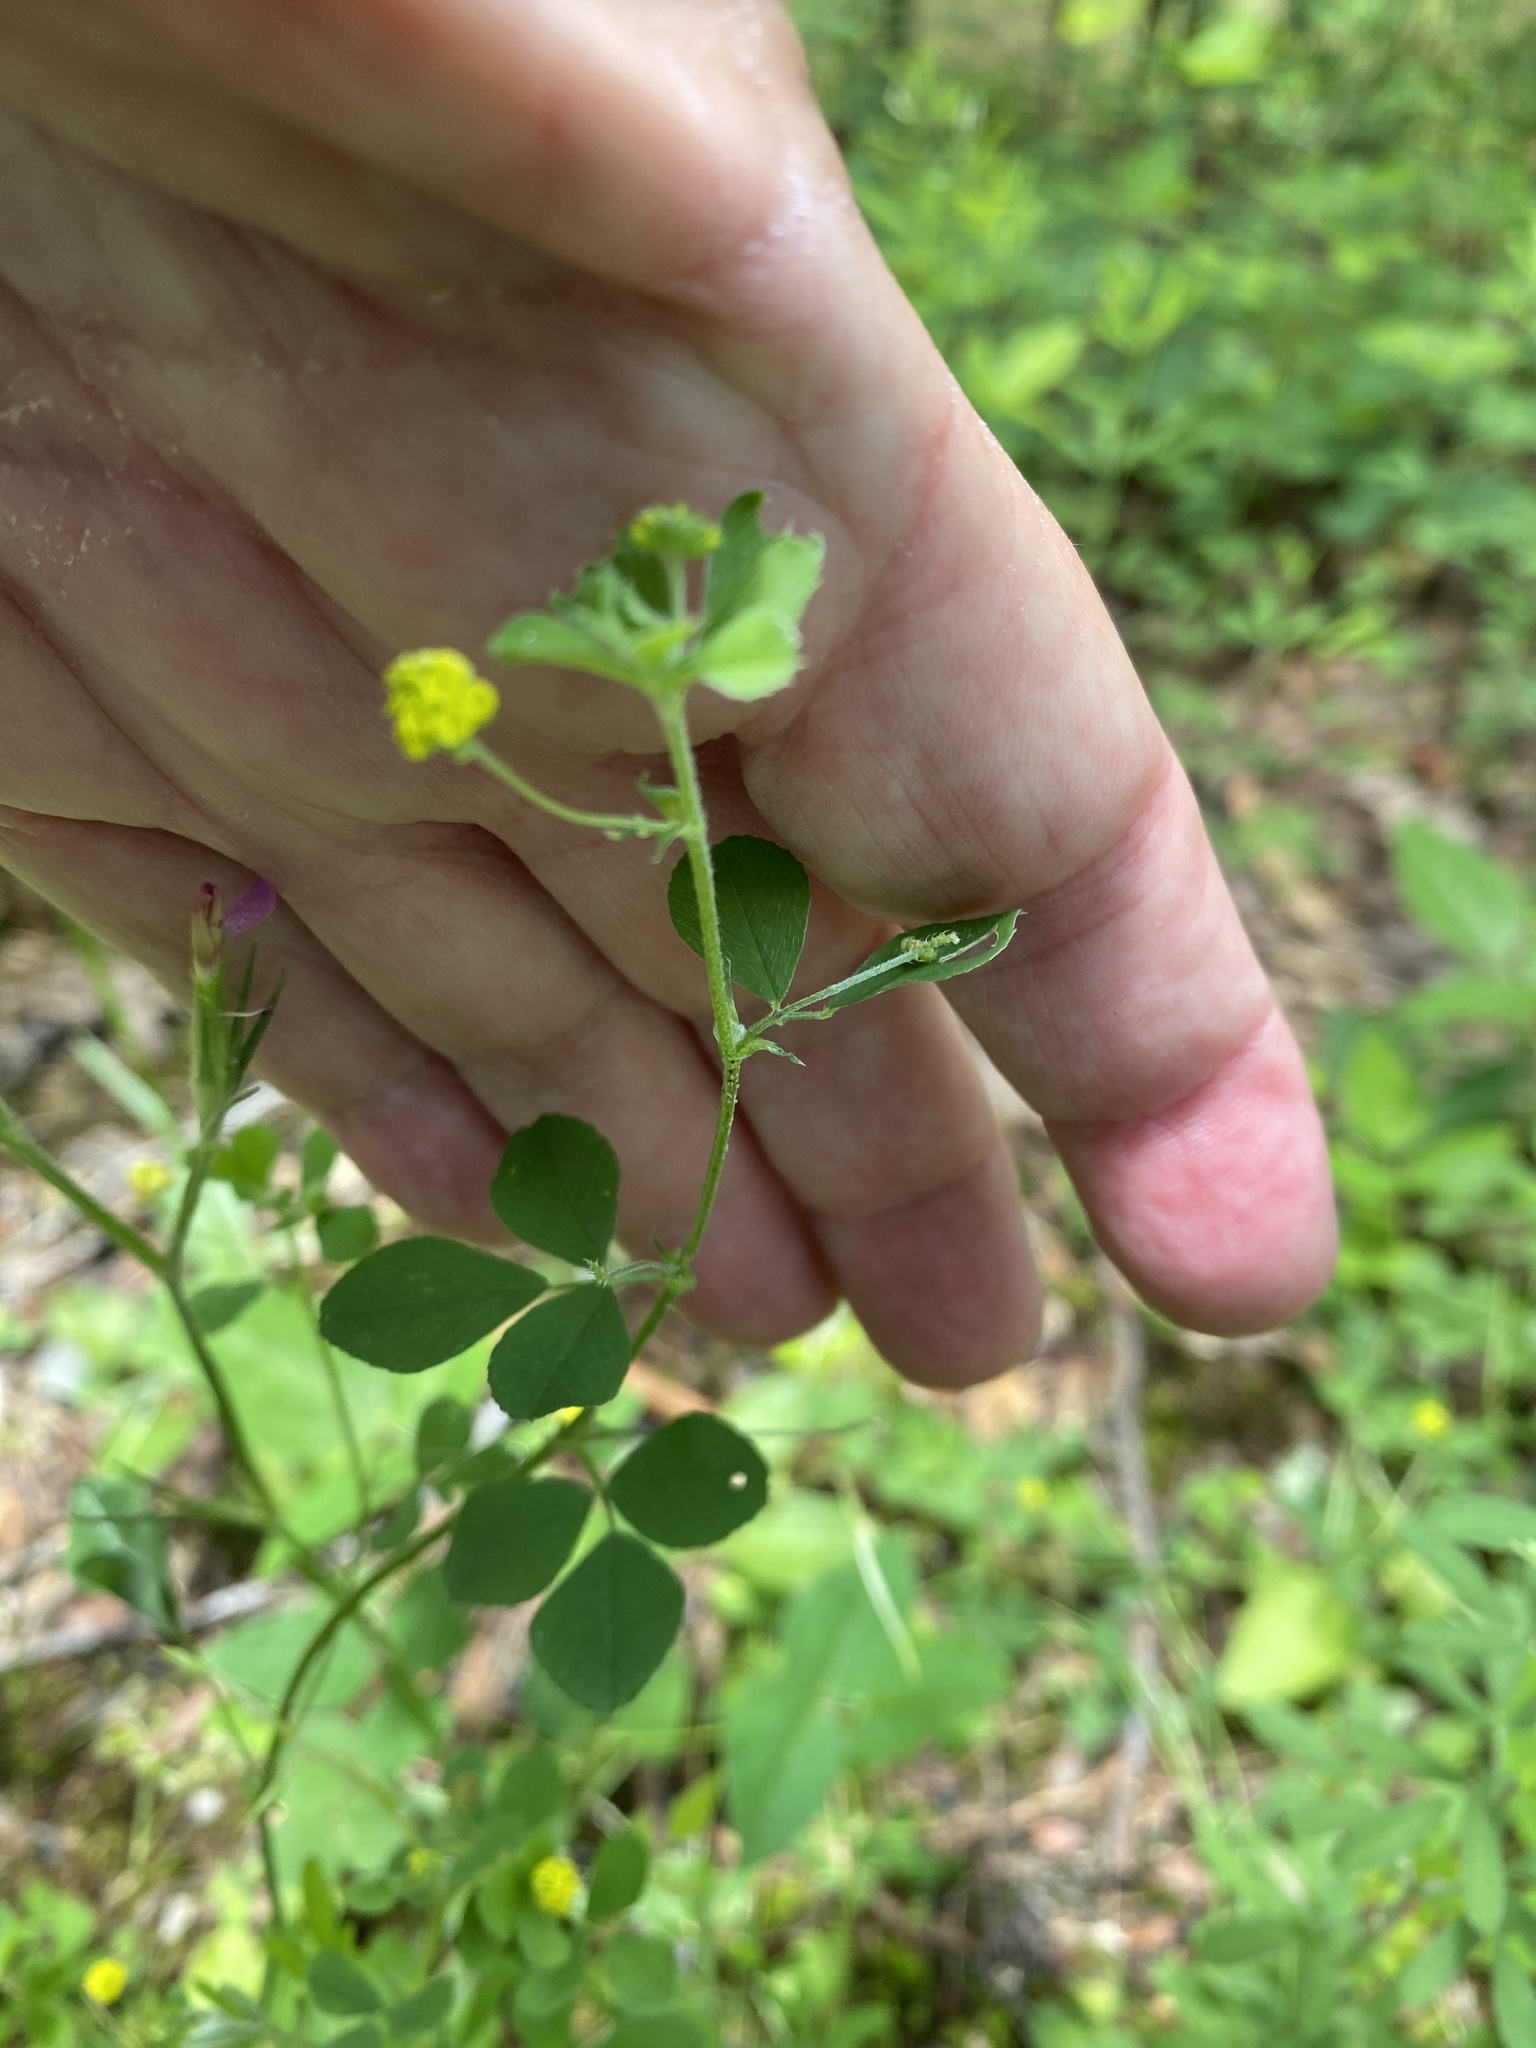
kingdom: Plantae
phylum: Tracheophyta
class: Magnoliopsida
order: Fabales
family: Fabaceae
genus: Medicago
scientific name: Medicago lupulina
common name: Black medick
